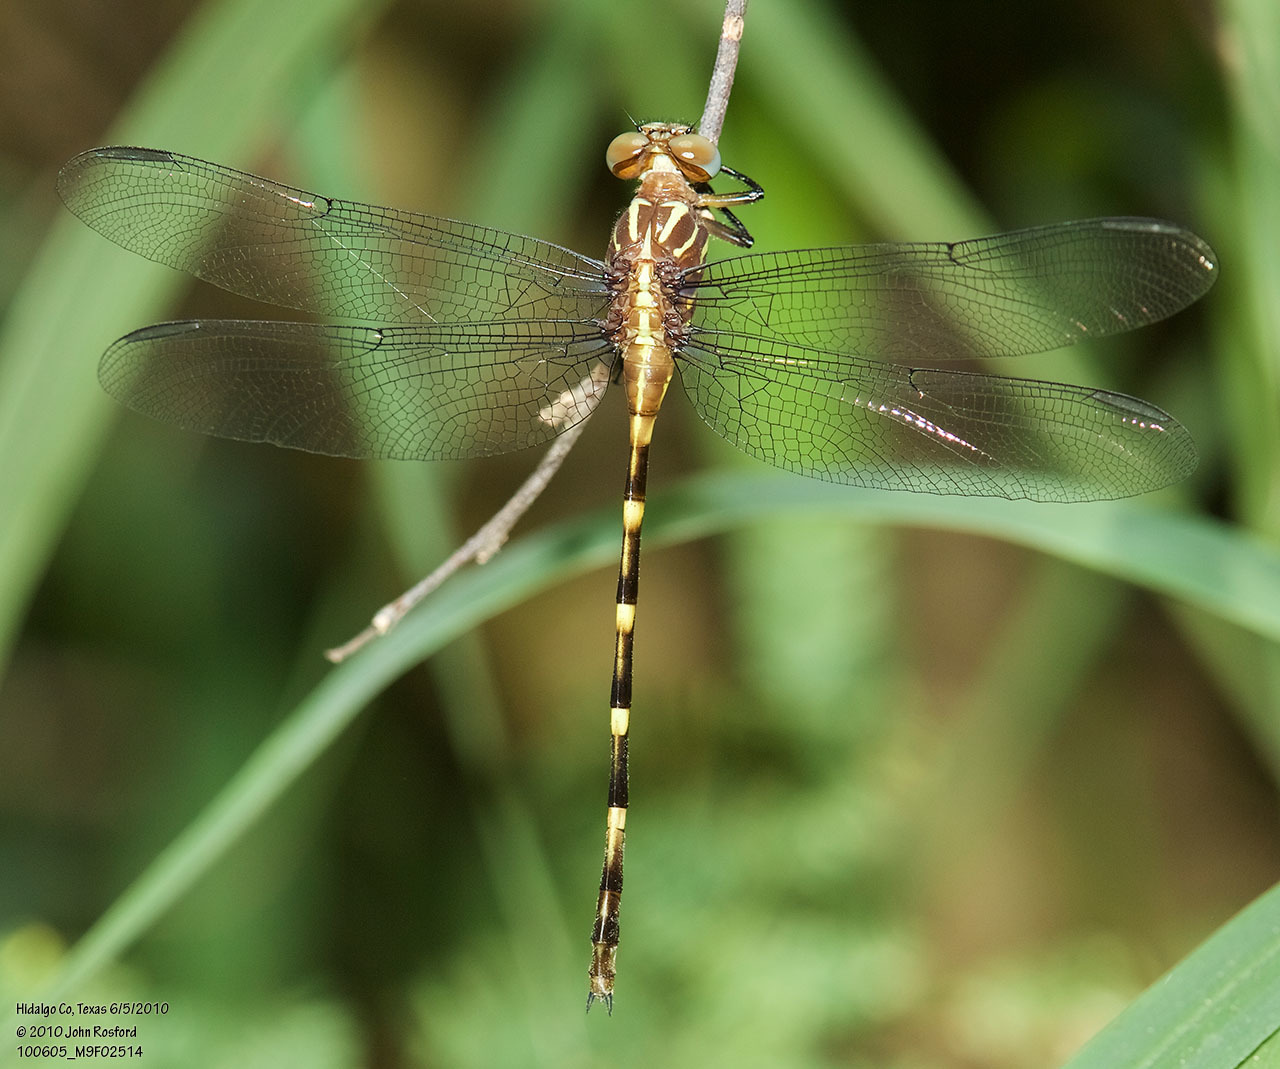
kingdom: Animalia
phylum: Arthropoda
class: Insecta
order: Odonata
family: Gomphidae
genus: Phyllocycla
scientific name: Phyllocycla breviphylla
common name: Ringed forceptail
